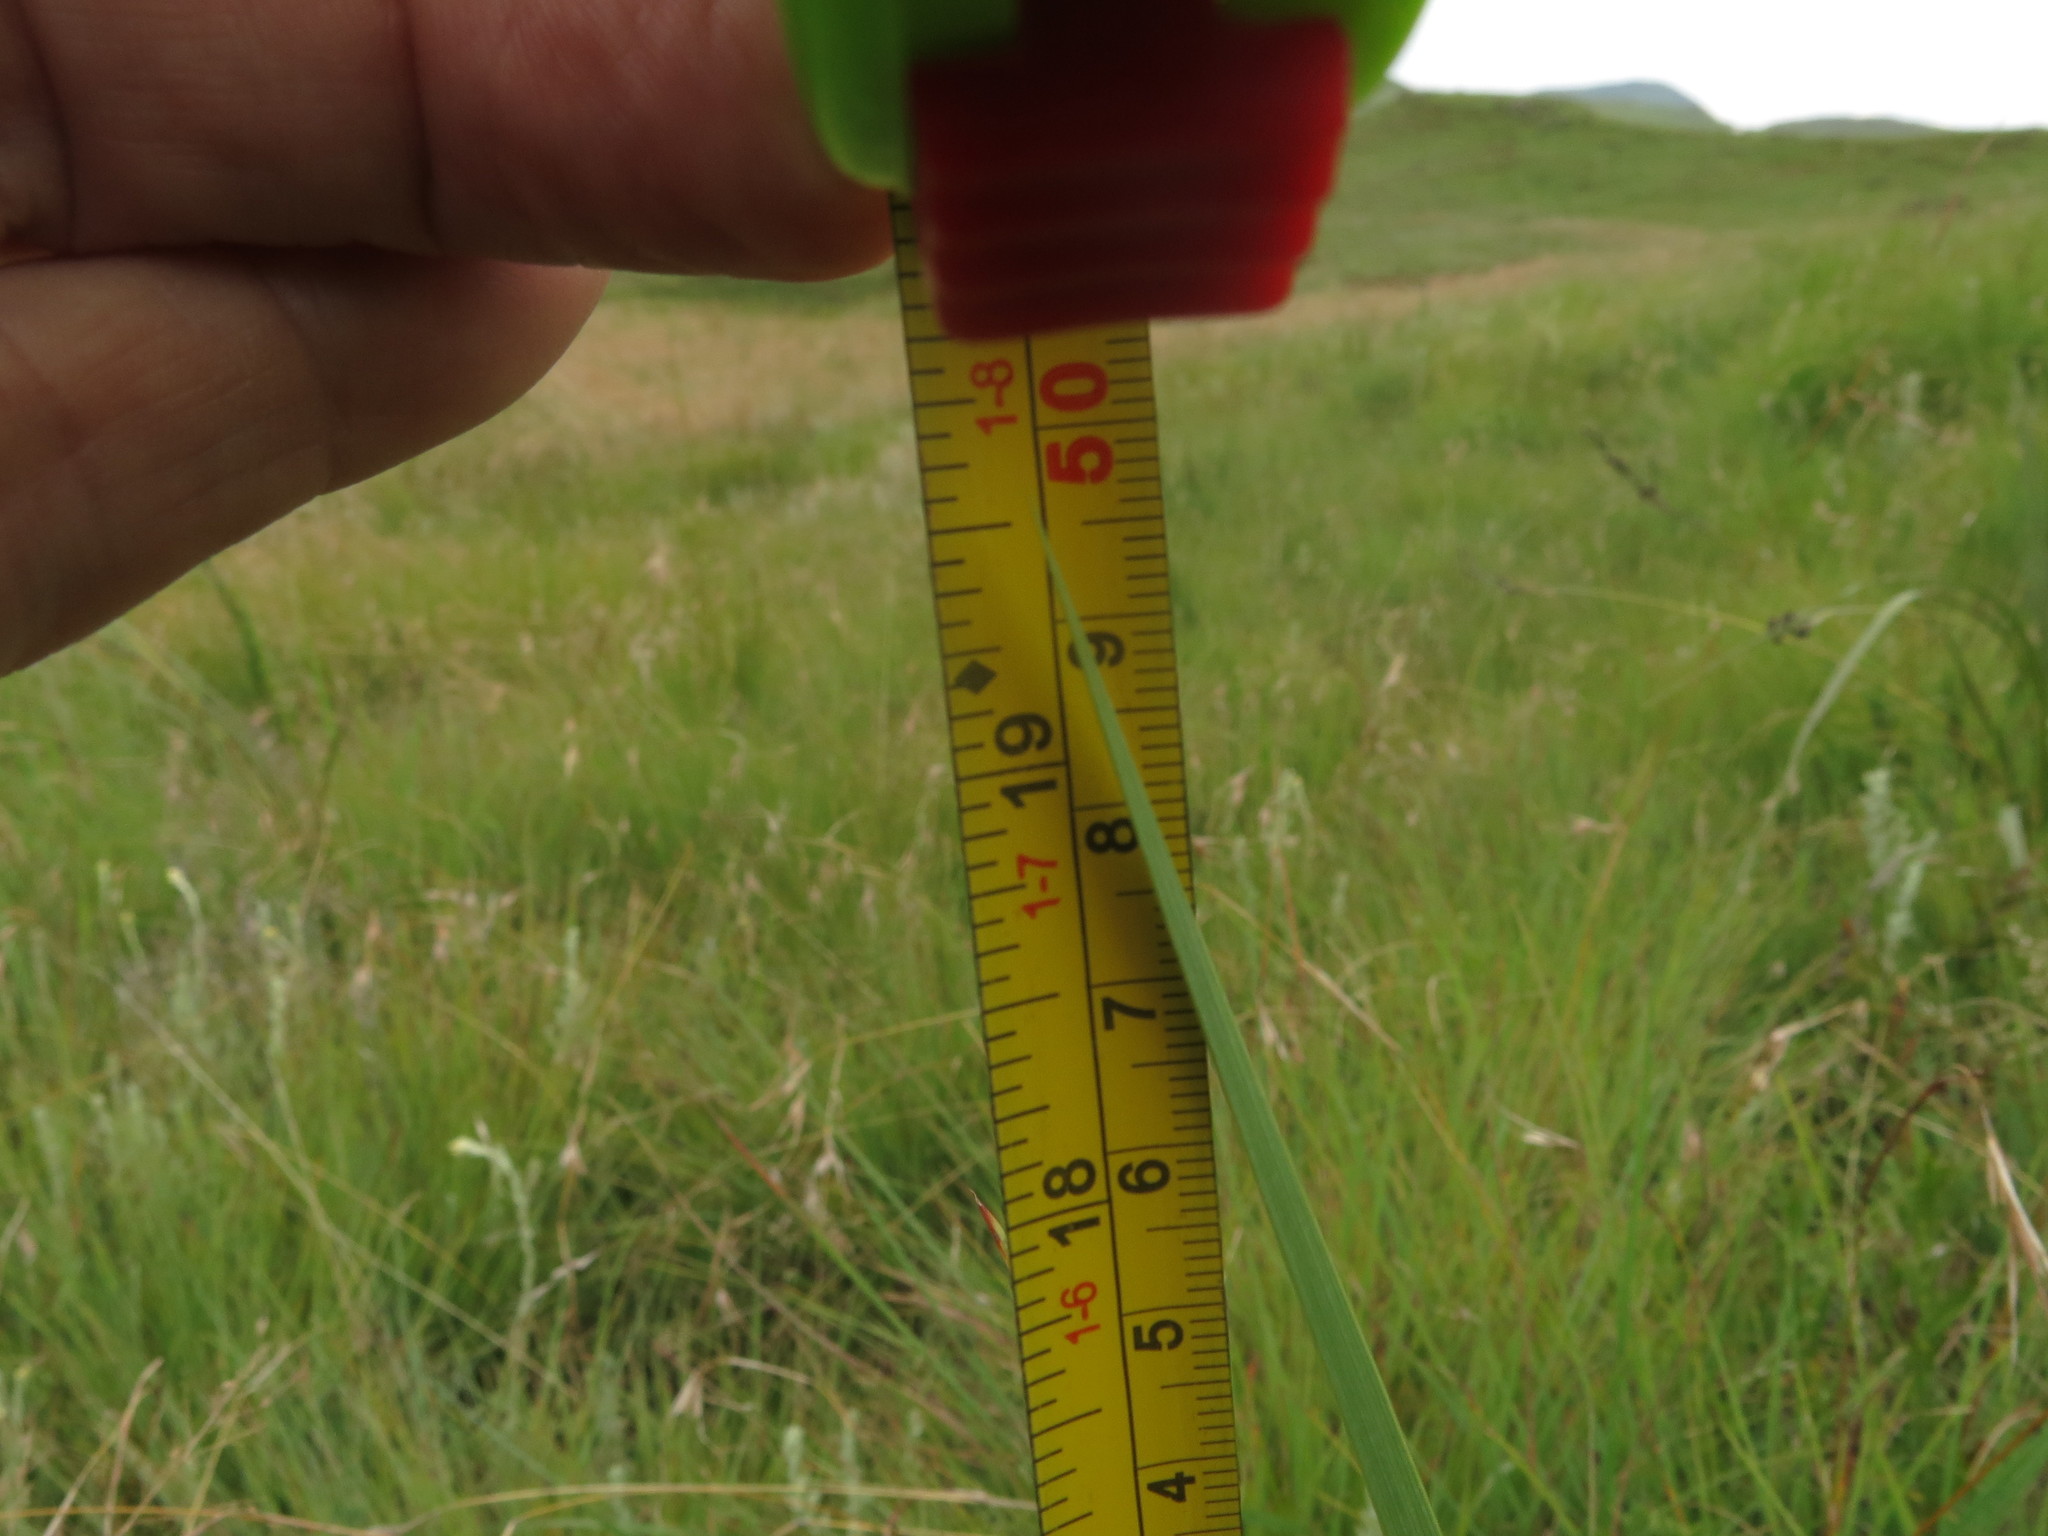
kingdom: Plantae
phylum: Tracheophyta
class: Liliopsida
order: Asparagales
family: Iridaceae
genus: Gladiolus
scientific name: Gladiolus crassifolius
